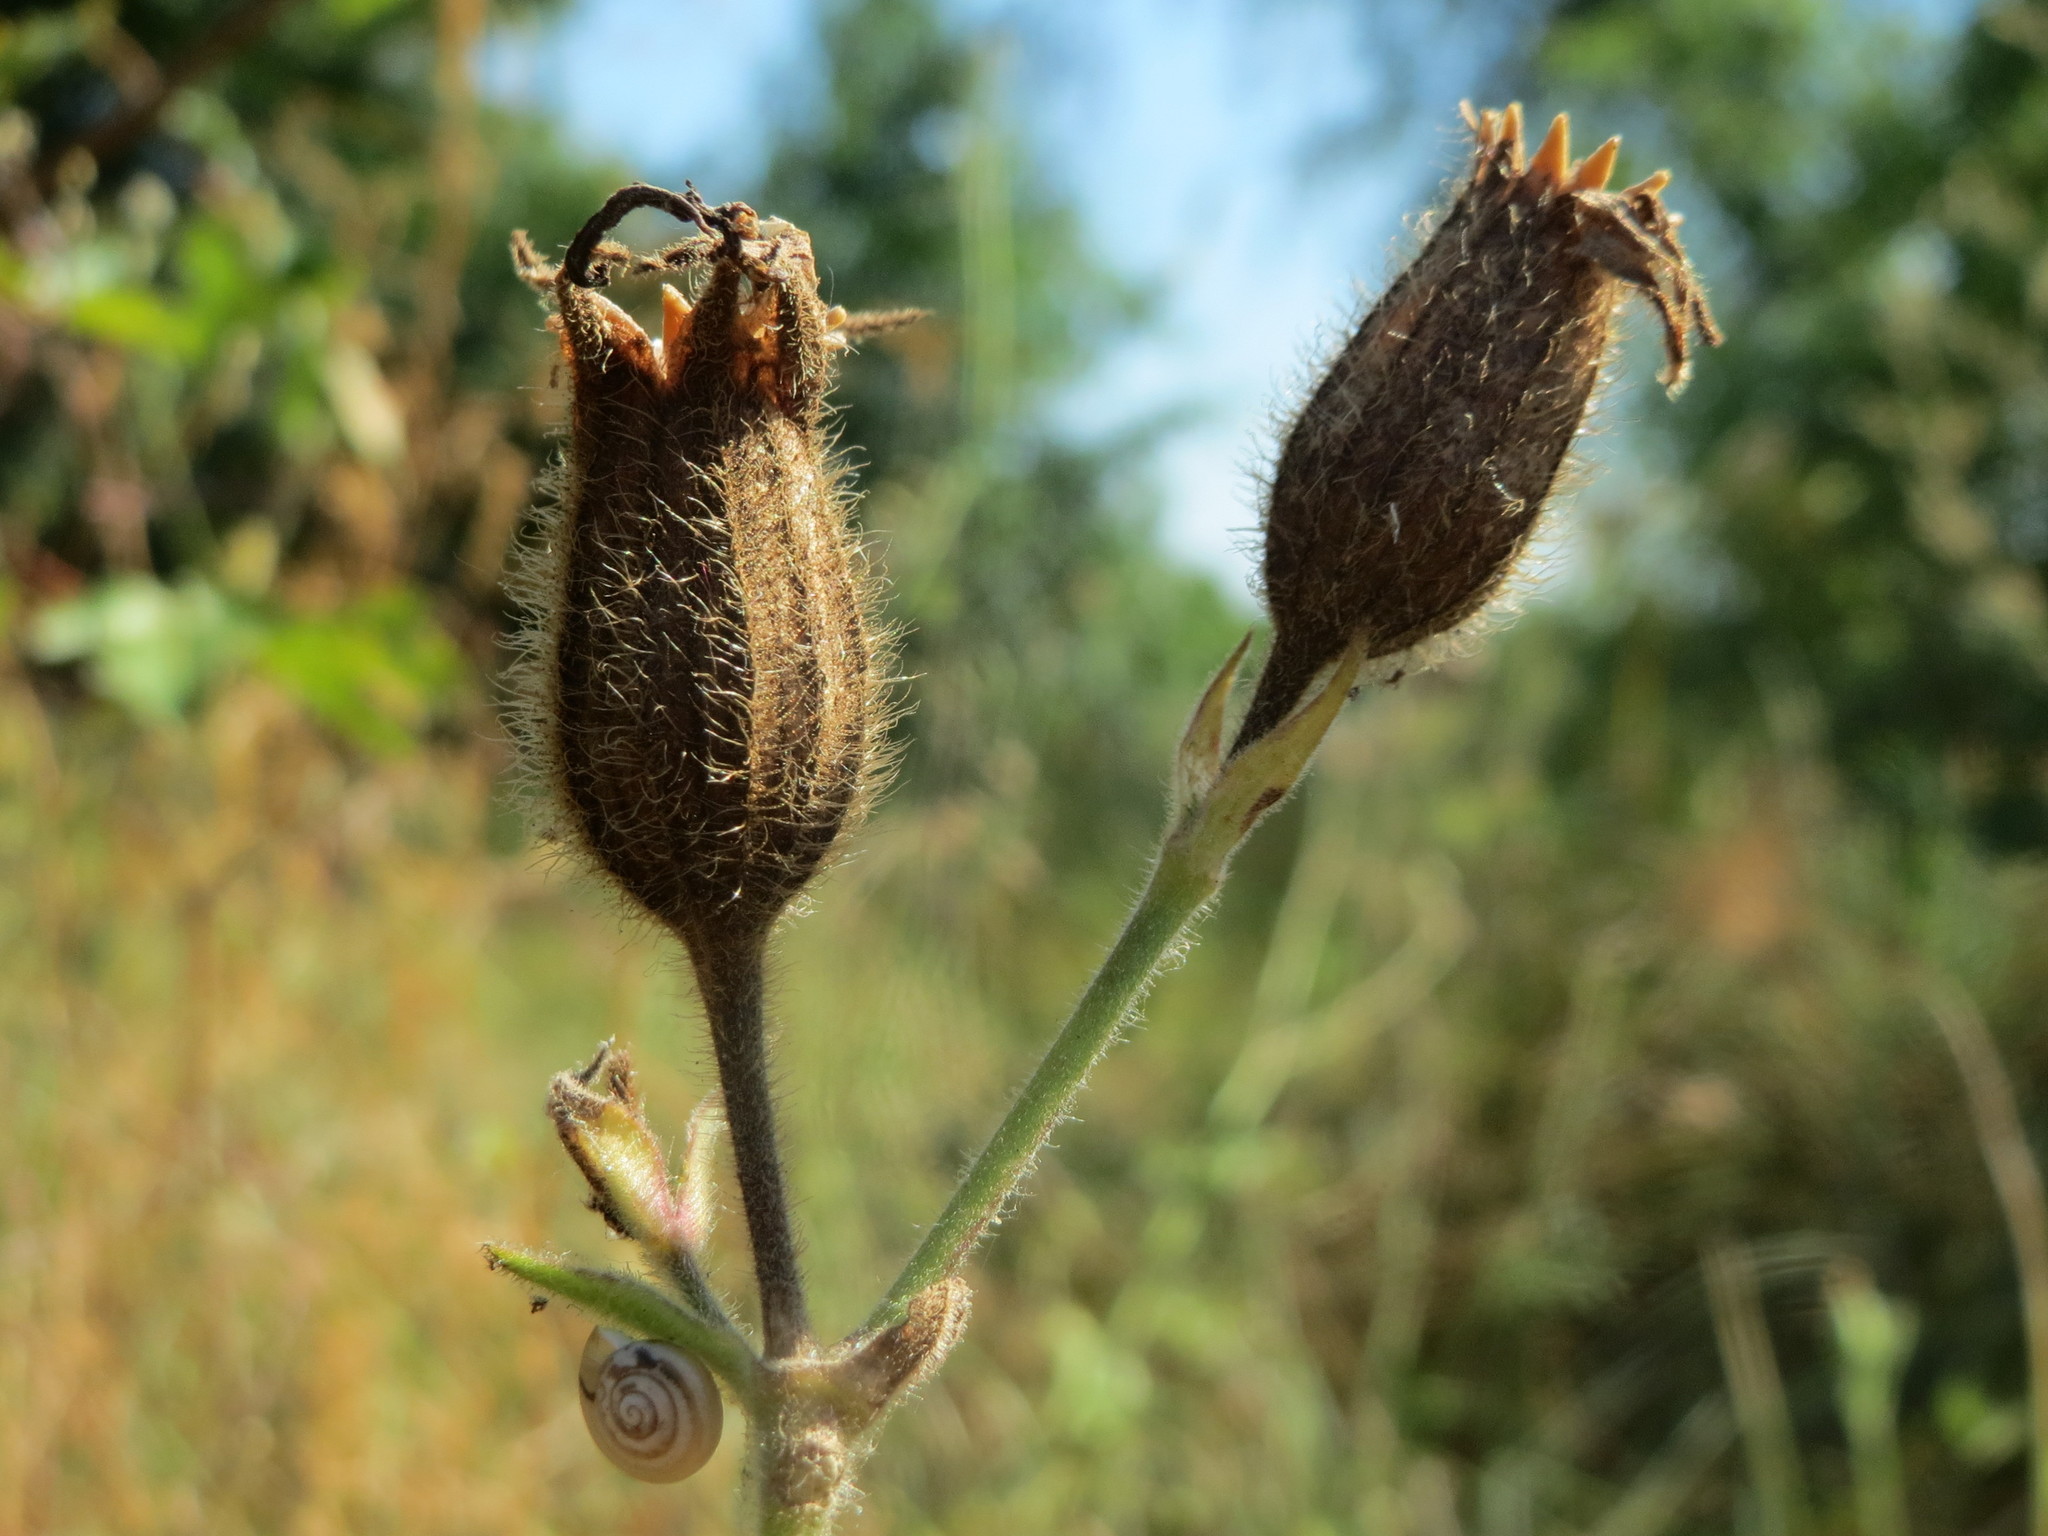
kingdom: Plantae
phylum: Tracheophyta
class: Magnoliopsida
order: Caryophyllales
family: Caryophyllaceae
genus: Silene
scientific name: Silene latifolia
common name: White campion
